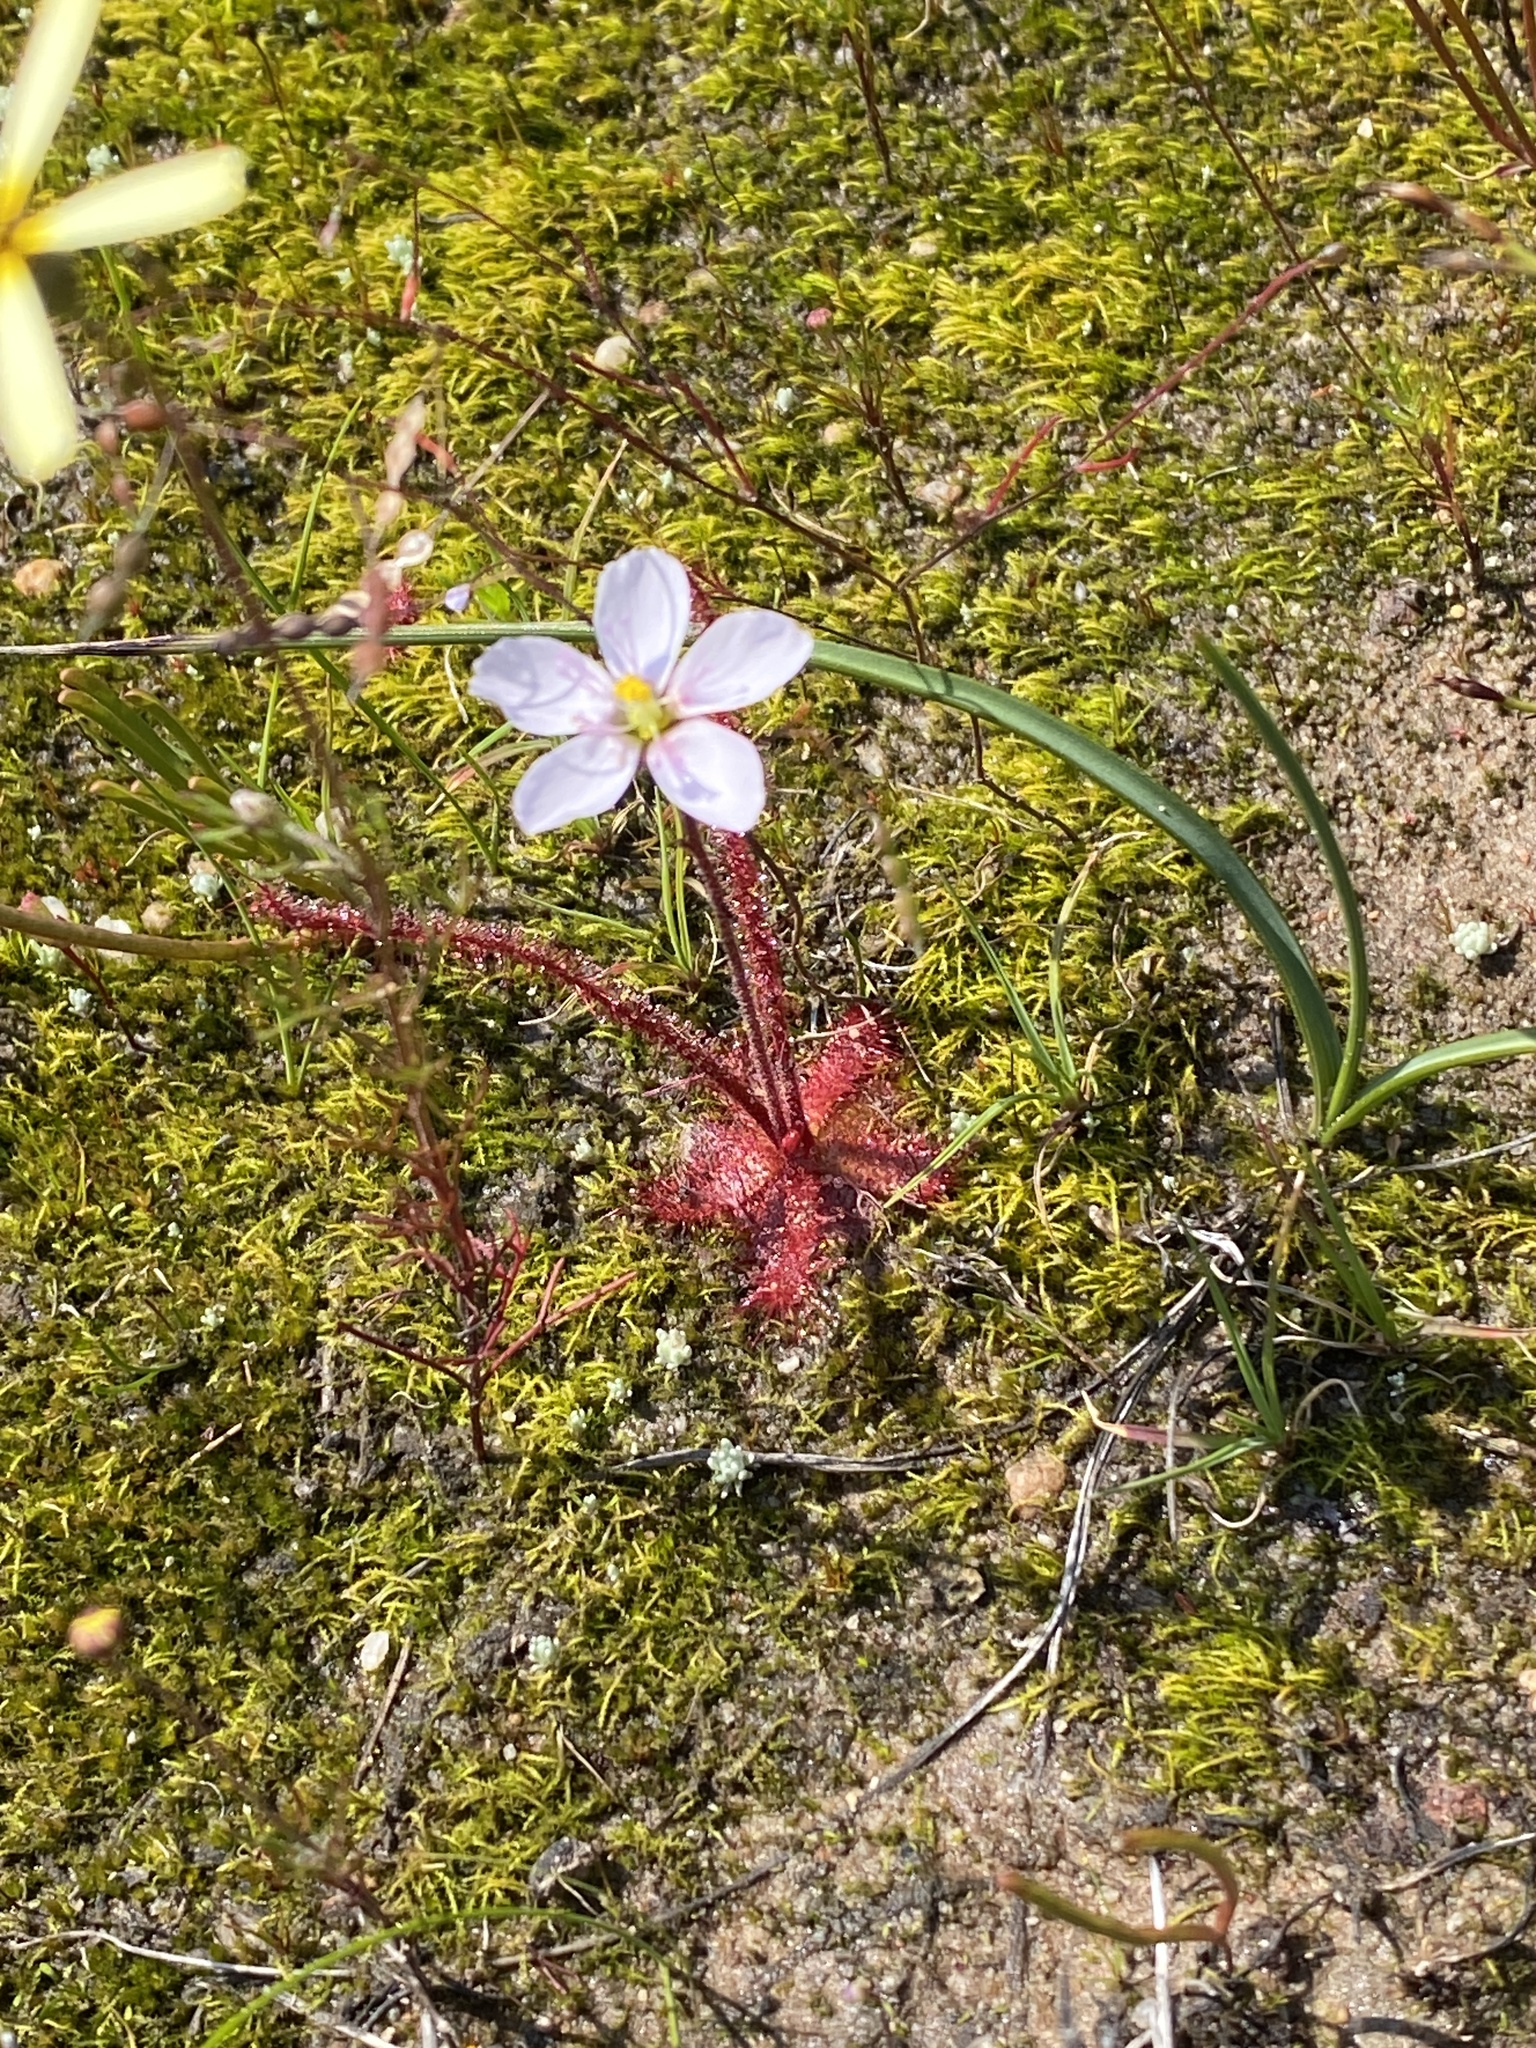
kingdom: Plantae
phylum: Tracheophyta
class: Magnoliopsida
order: Caryophyllales
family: Droseraceae
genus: Drosera
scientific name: Drosera alba
